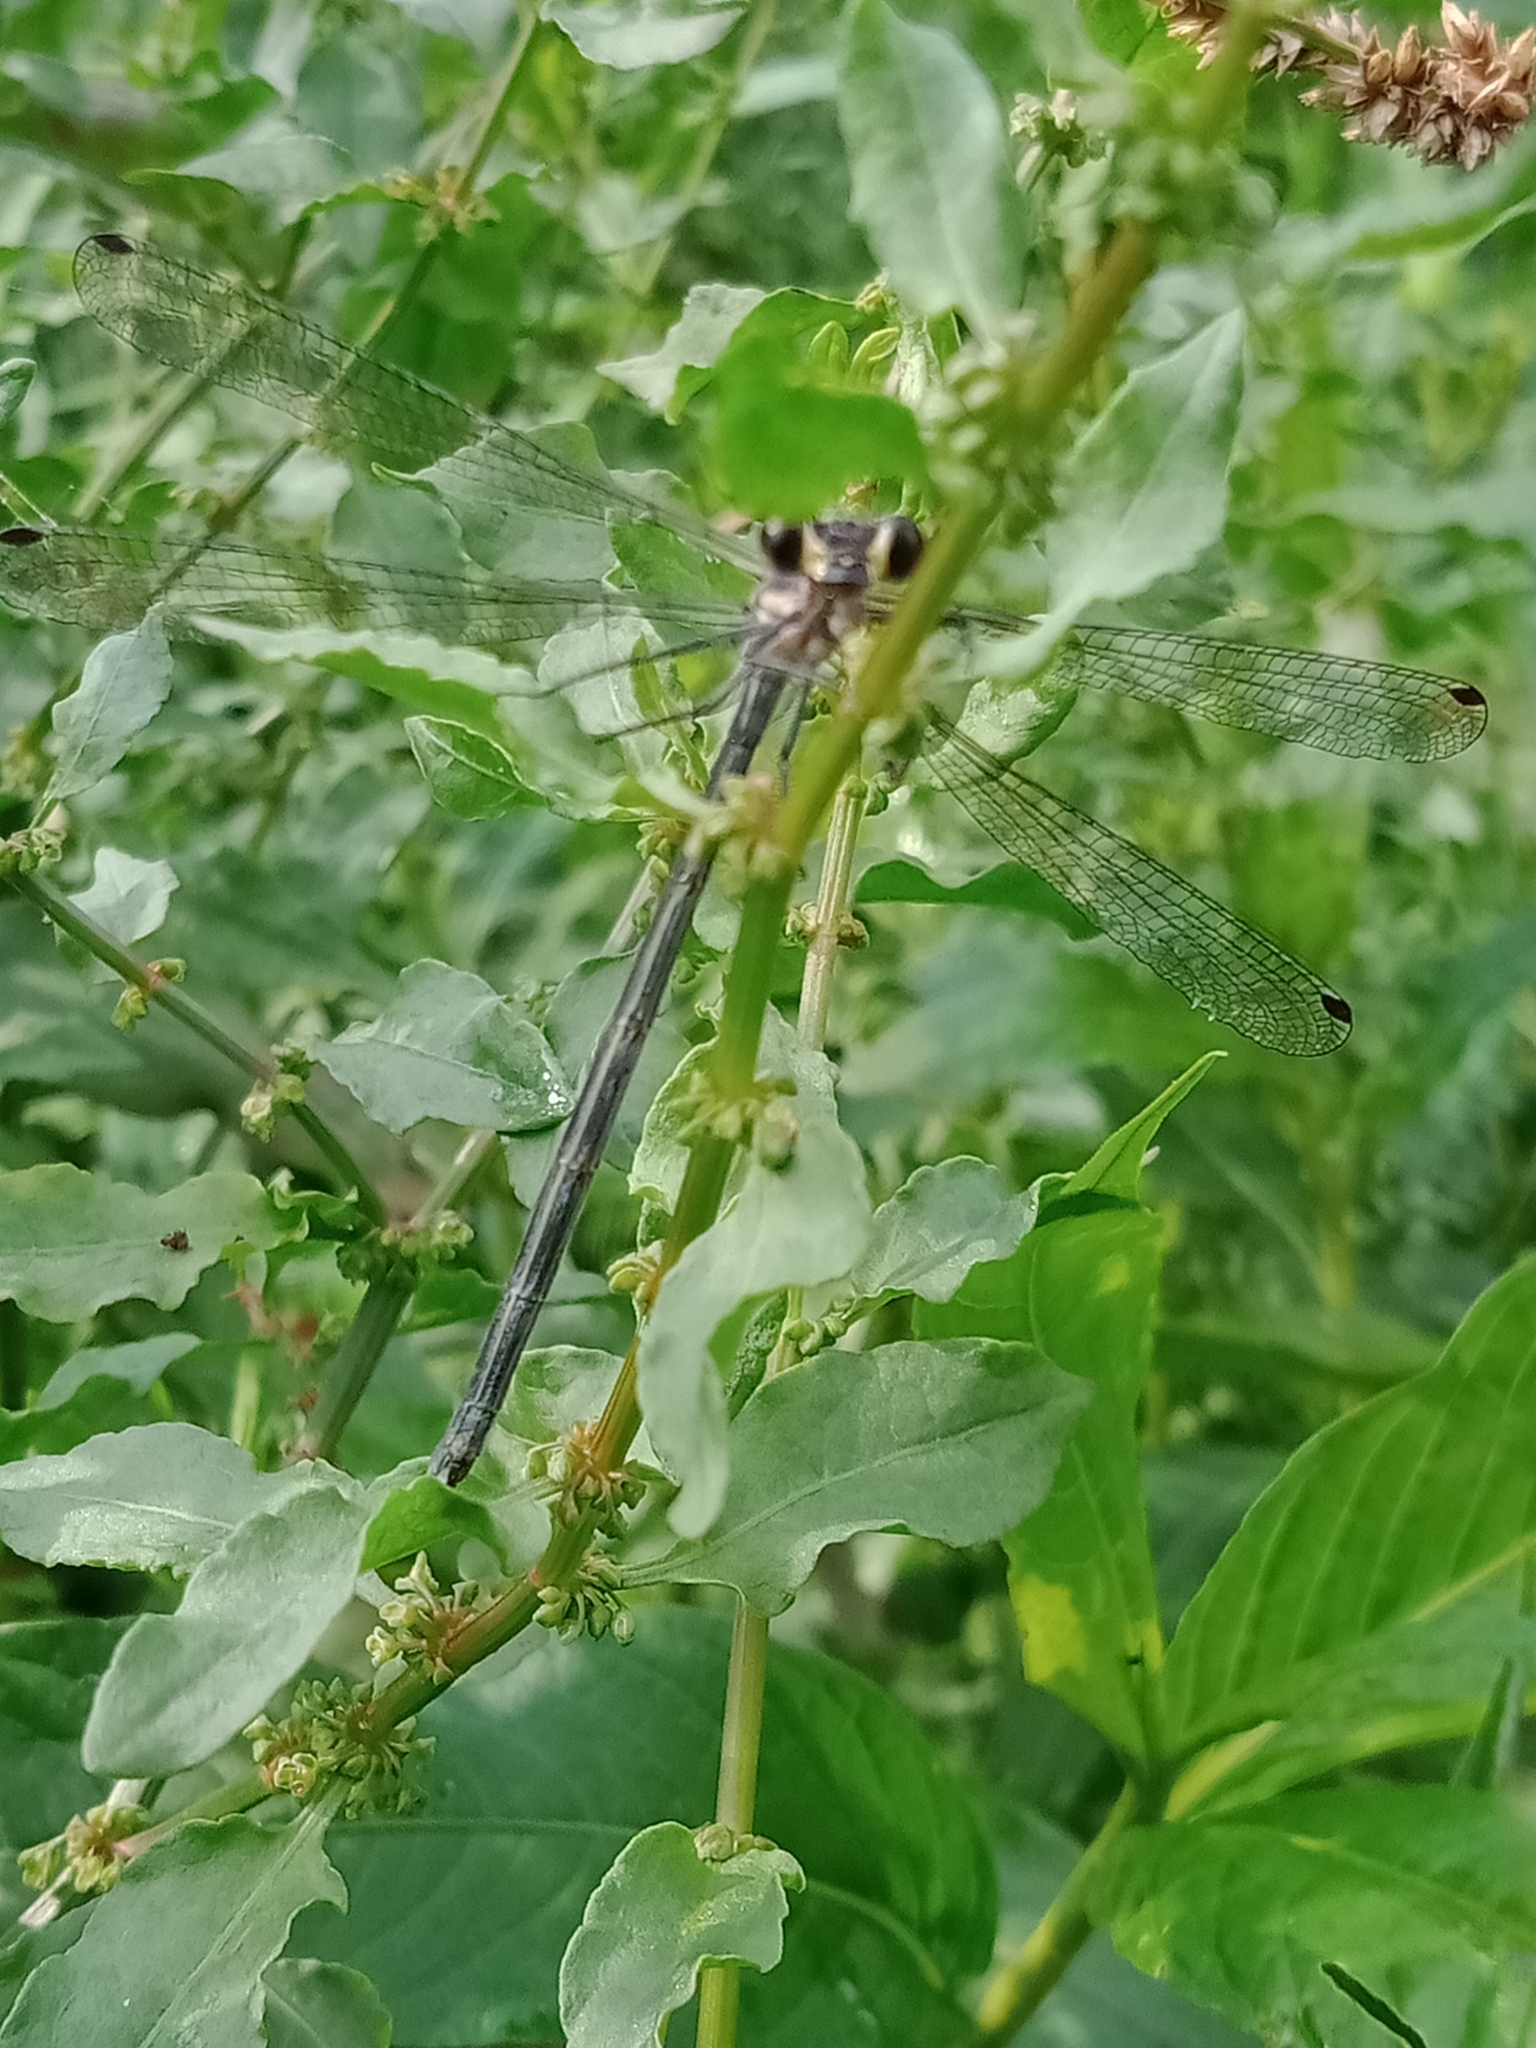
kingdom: Animalia
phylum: Arthropoda
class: Insecta
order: Odonata
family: Argiolestidae
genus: Austroargiolestes
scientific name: Austroargiolestes icteromelas
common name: Common flatwing
